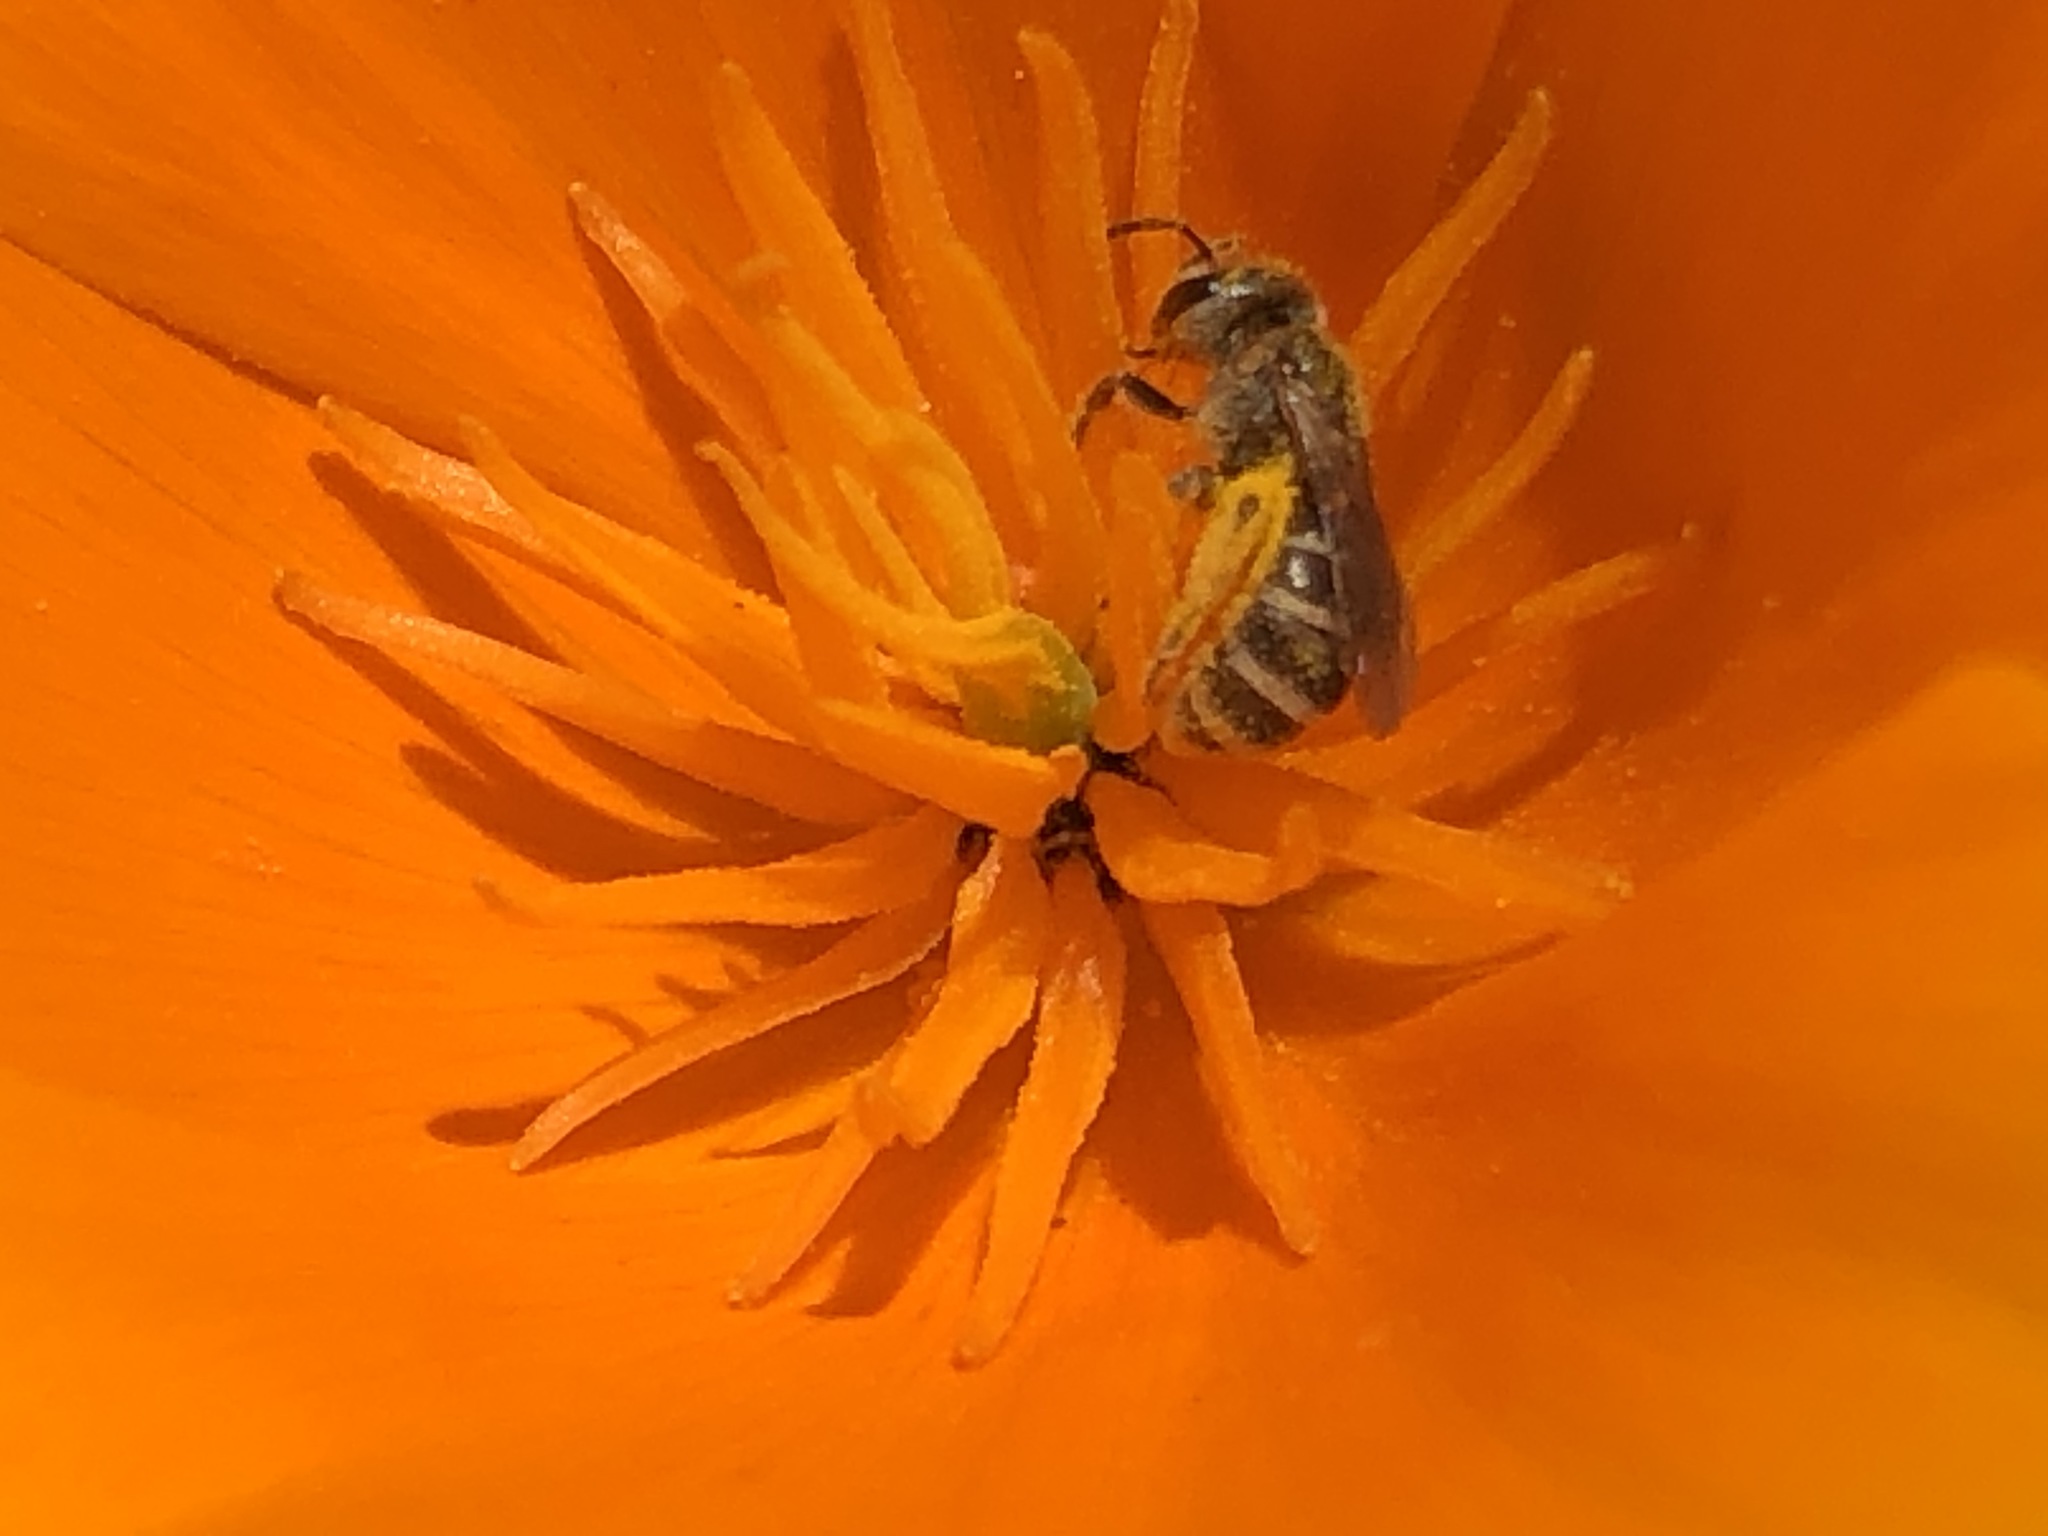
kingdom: Animalia
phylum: Arthropoda
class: Insecta
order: Hymenoptera
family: Halictidae
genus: Halictus
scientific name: Halictus tripartitus
